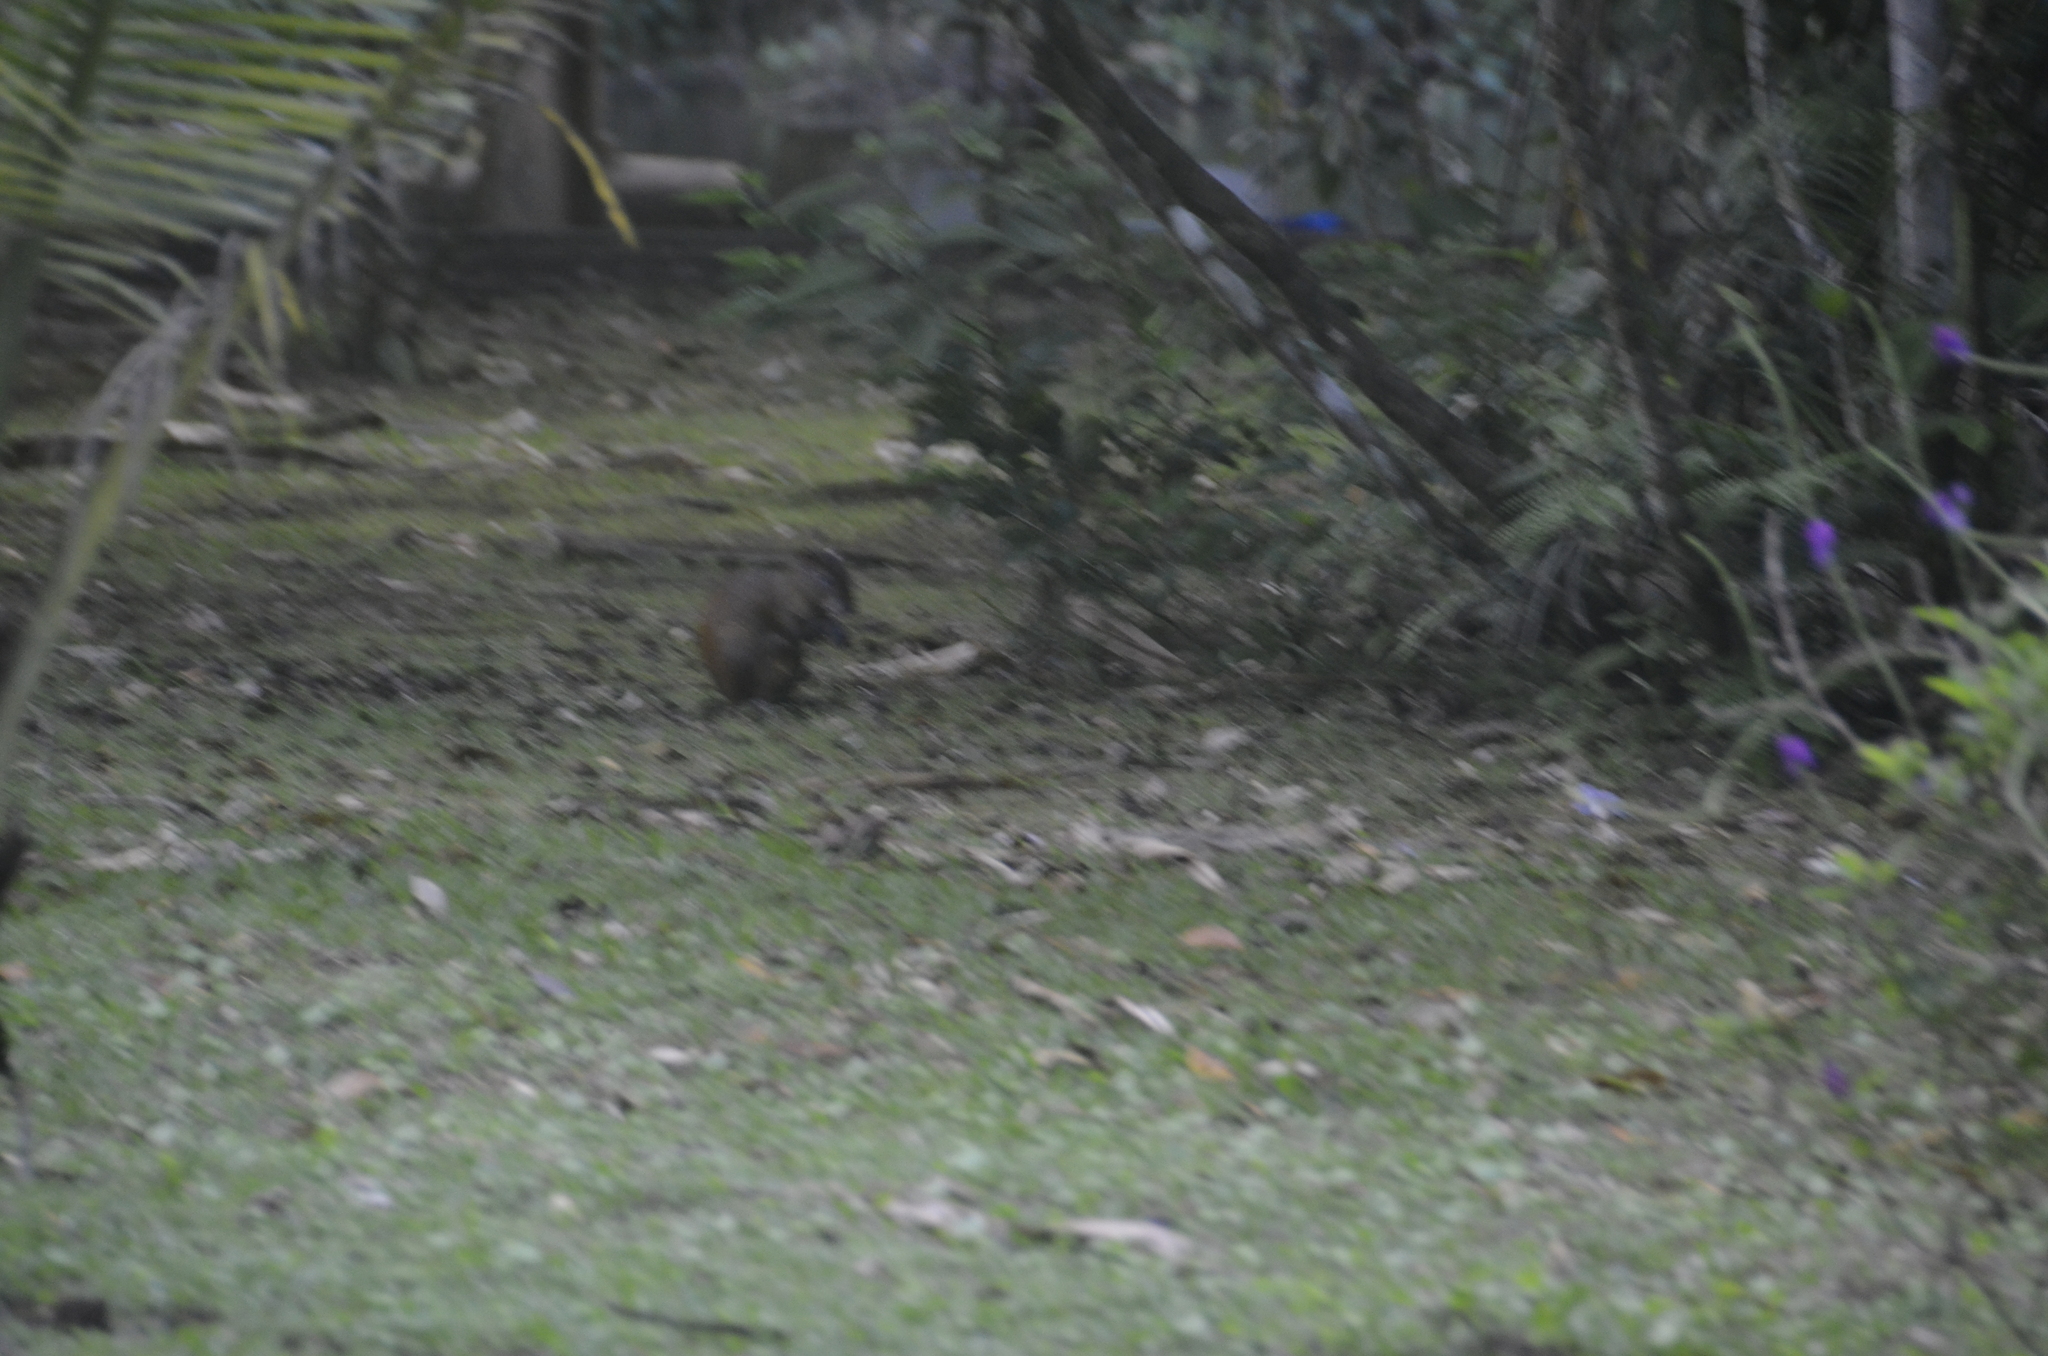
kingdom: Animalia
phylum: Chordata
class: Mammalia
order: Rodentia
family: Dasyproctidae
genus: Dasyprocta
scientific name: Dasyprocta punctata
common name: Central american agouti
